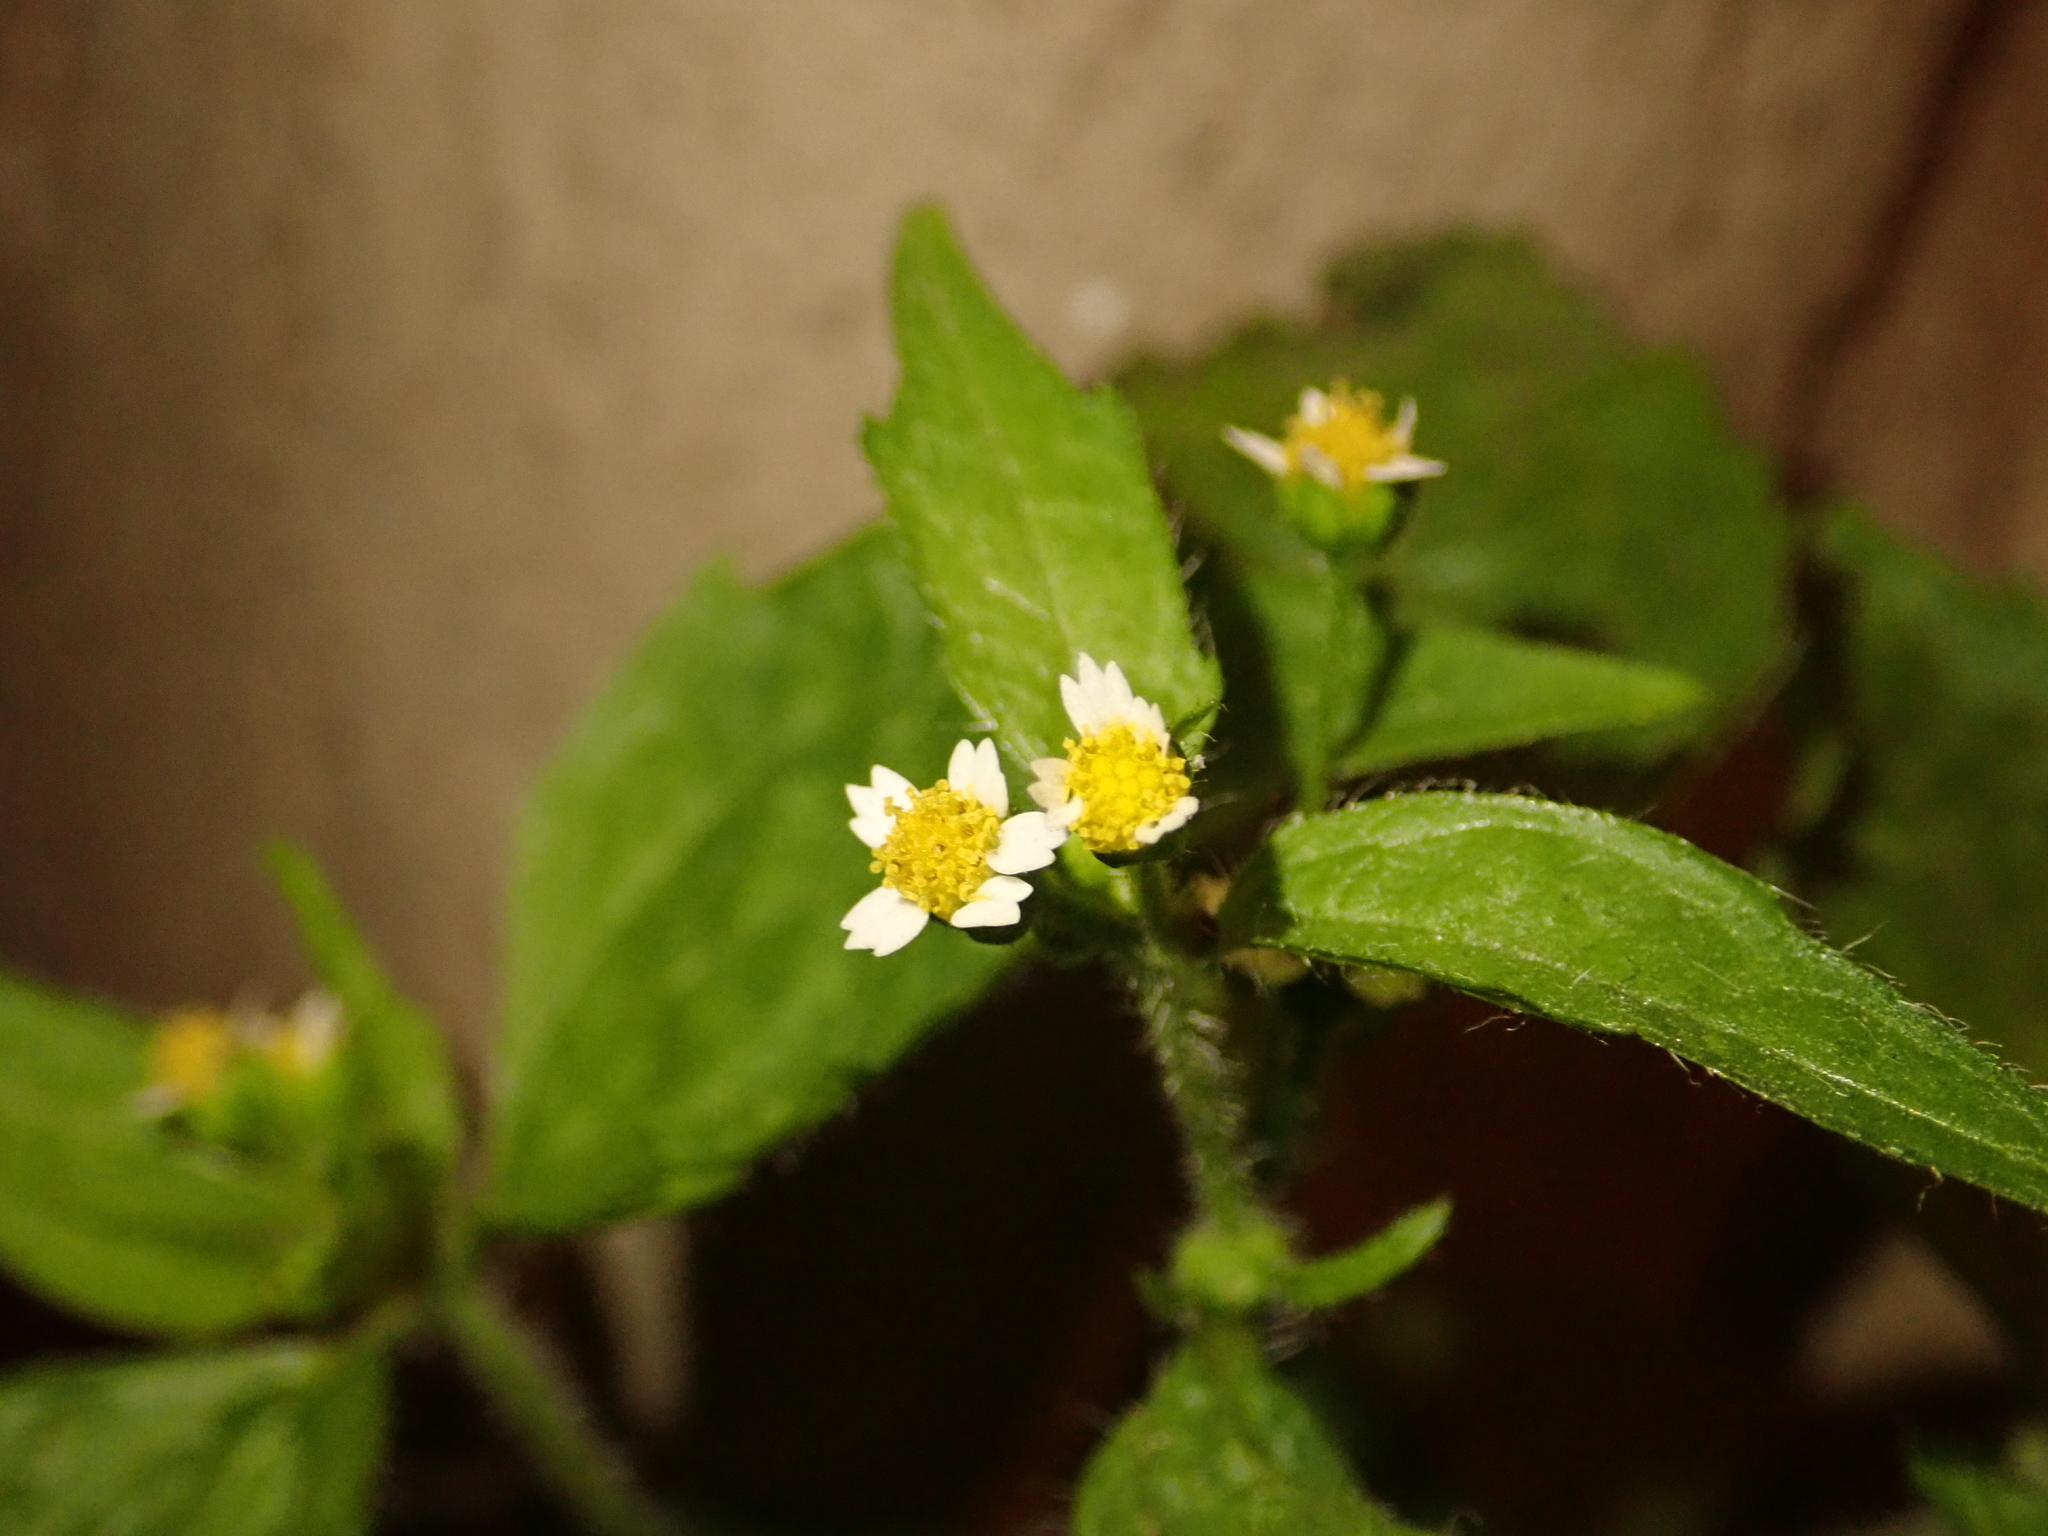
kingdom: Plantae
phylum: Tracheophyta
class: Magnoliopsida
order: Asterales
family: Asteraceae
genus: Galinsoga
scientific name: Galinsoga quadriradiata
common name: Shaggy soldier
